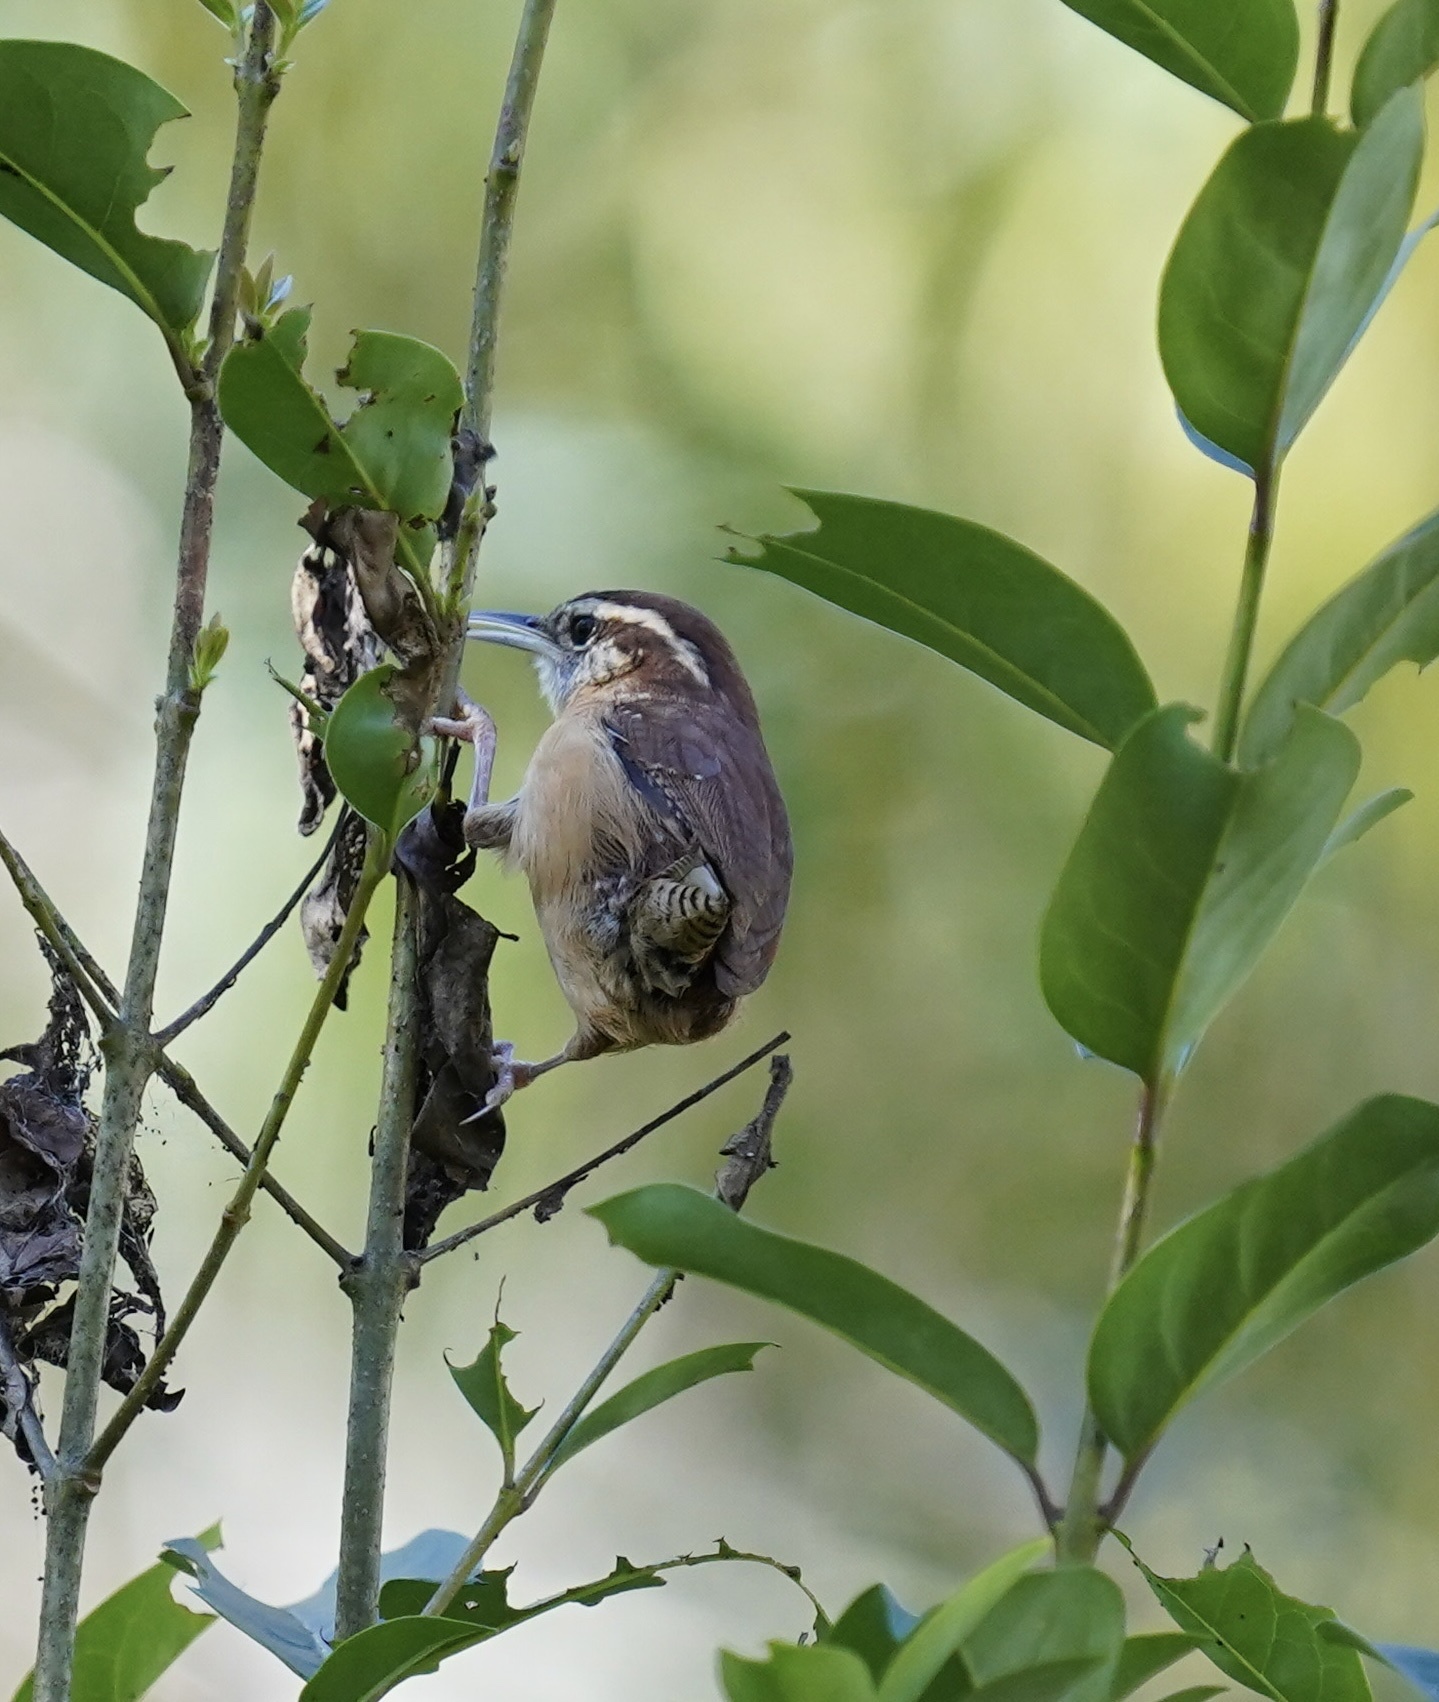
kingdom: Animalia
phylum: Chordata
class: Aves
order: Passeriformes
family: Troglodytidae
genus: Thryothorus
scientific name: Thryothorus ludovicianus
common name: Carolina wren
